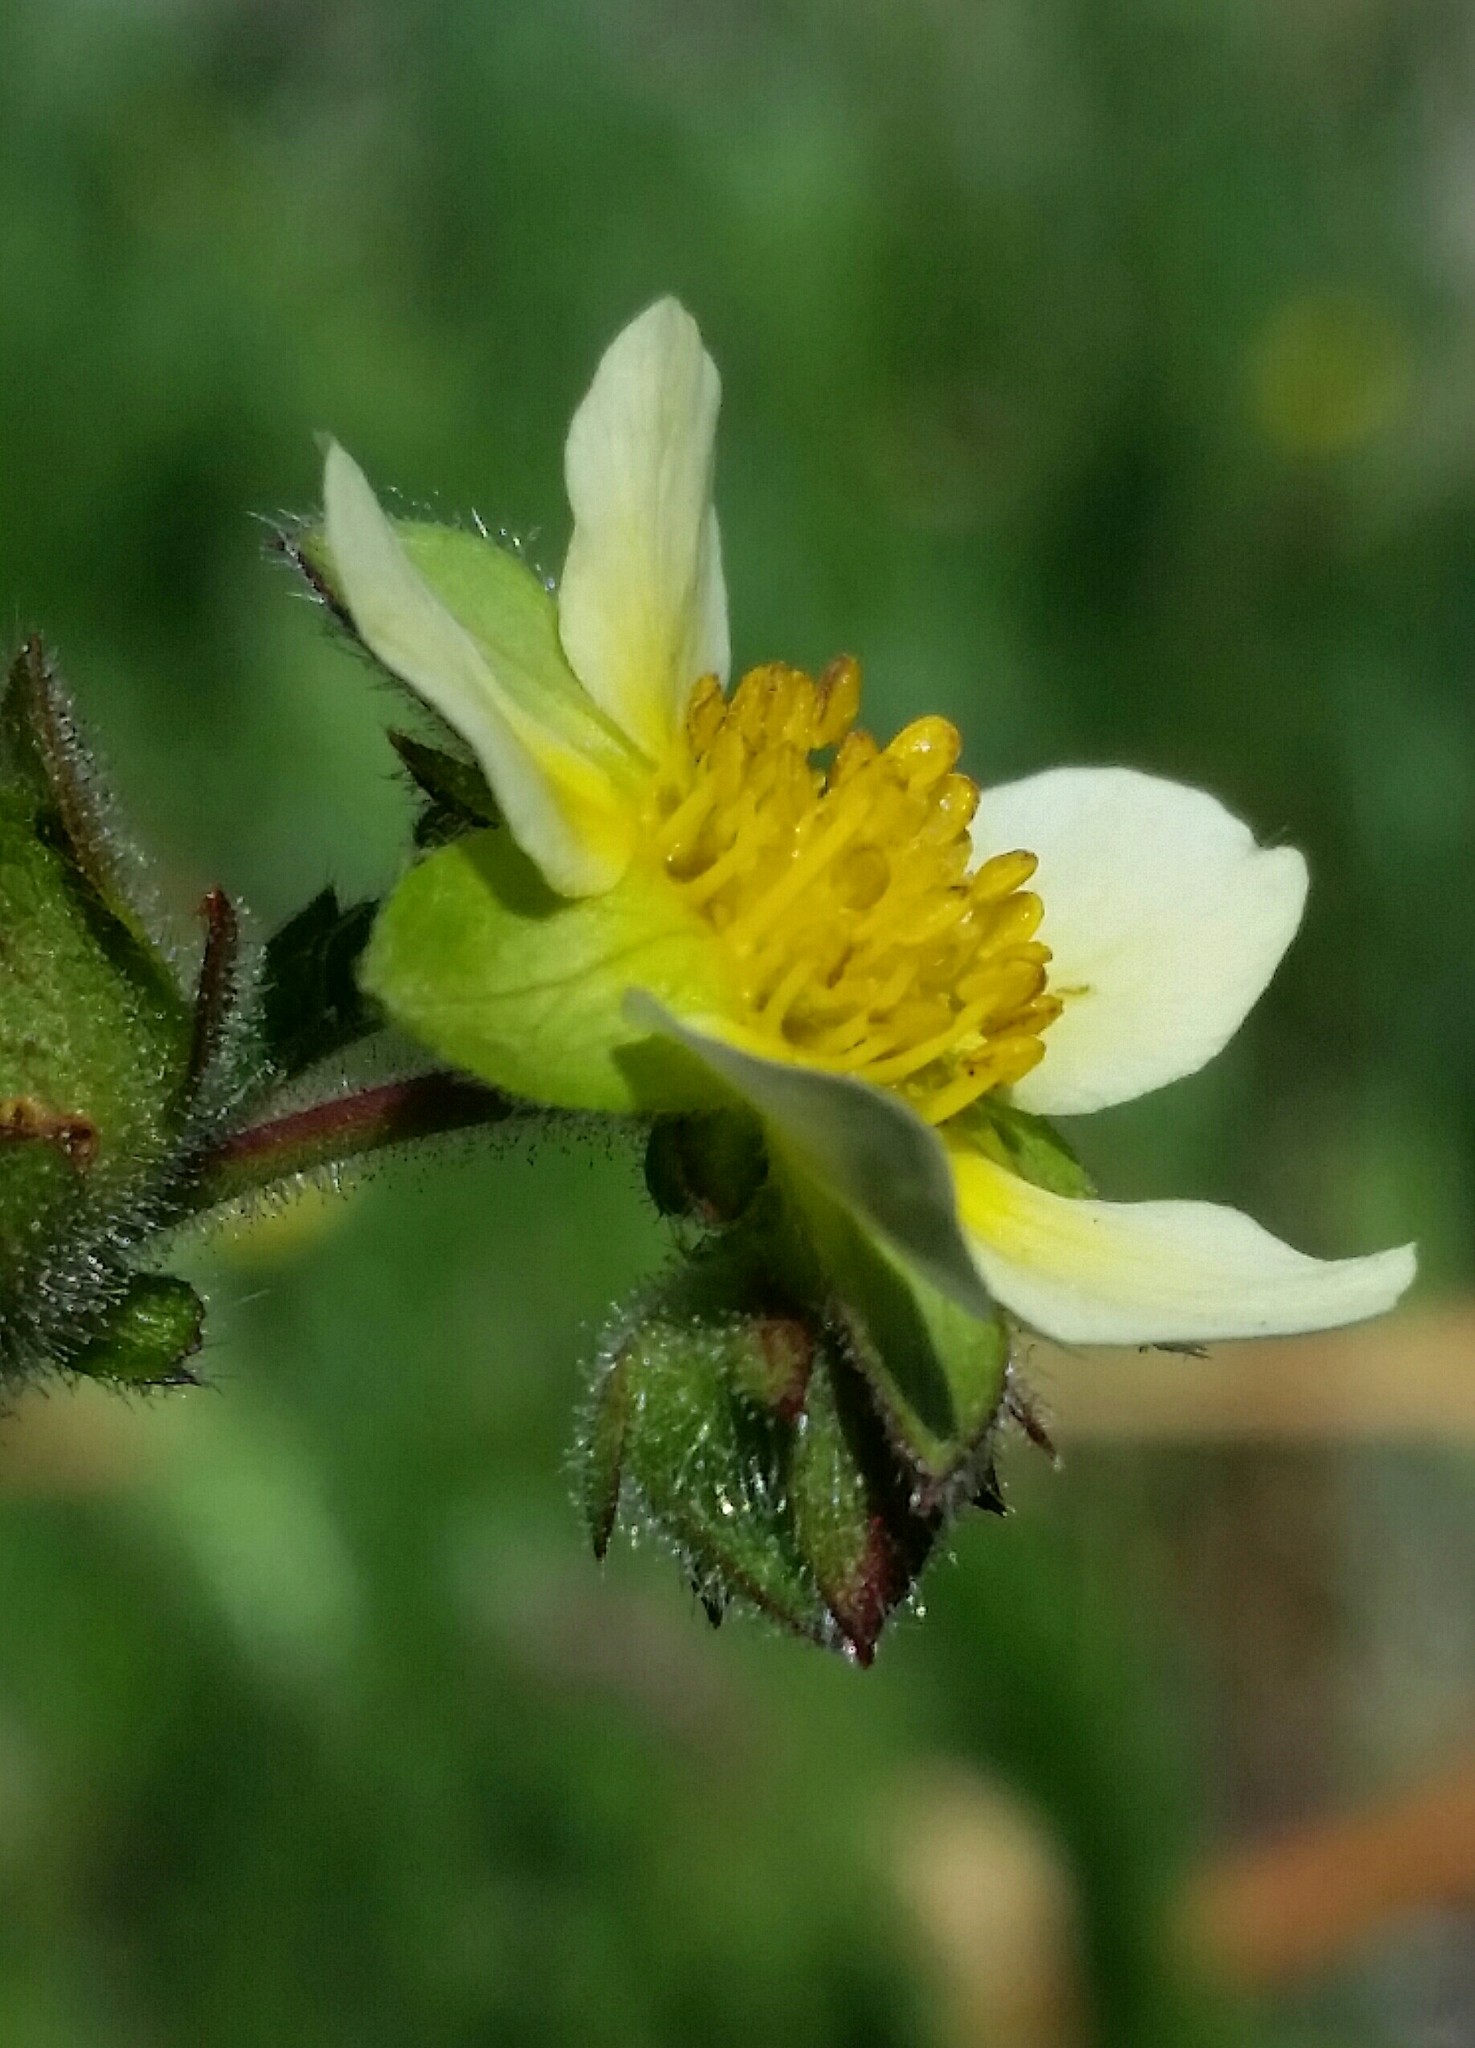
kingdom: Plantae
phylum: Tracheophyta
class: Magnoliopsida
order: Rosales
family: Rosaceae
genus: Drymocallis
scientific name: Drymocallis glandulosa
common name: Sticky cinquefoil
